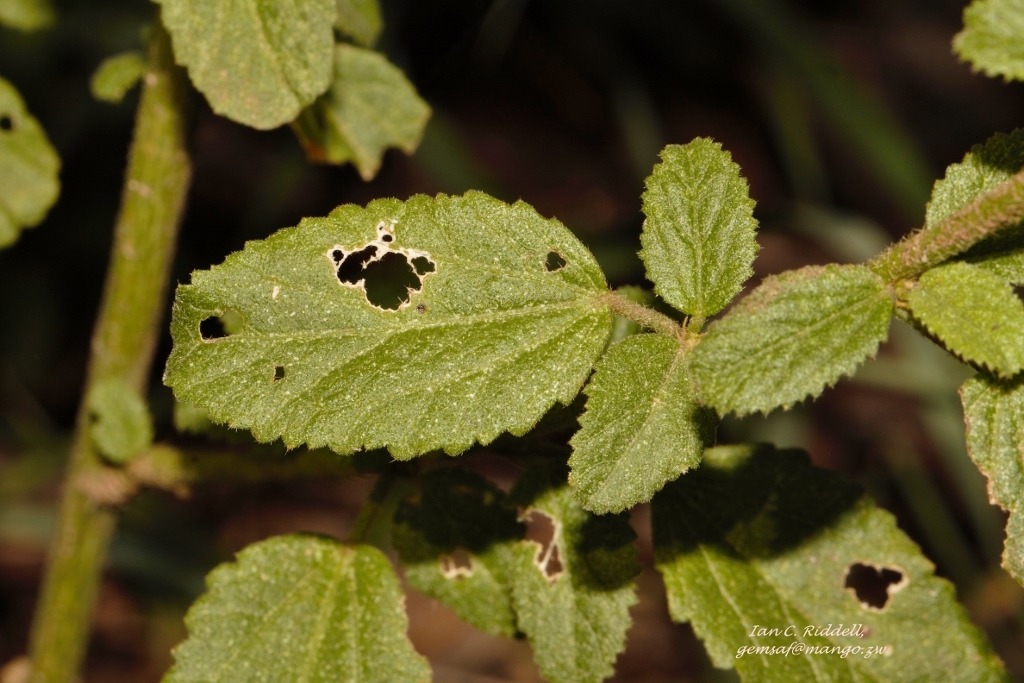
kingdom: Plantae
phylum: Tracheophyta
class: Magnoliopsida
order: Malvales
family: Malvaceae
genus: Hibiscus
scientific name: Hibiscus micranthus
